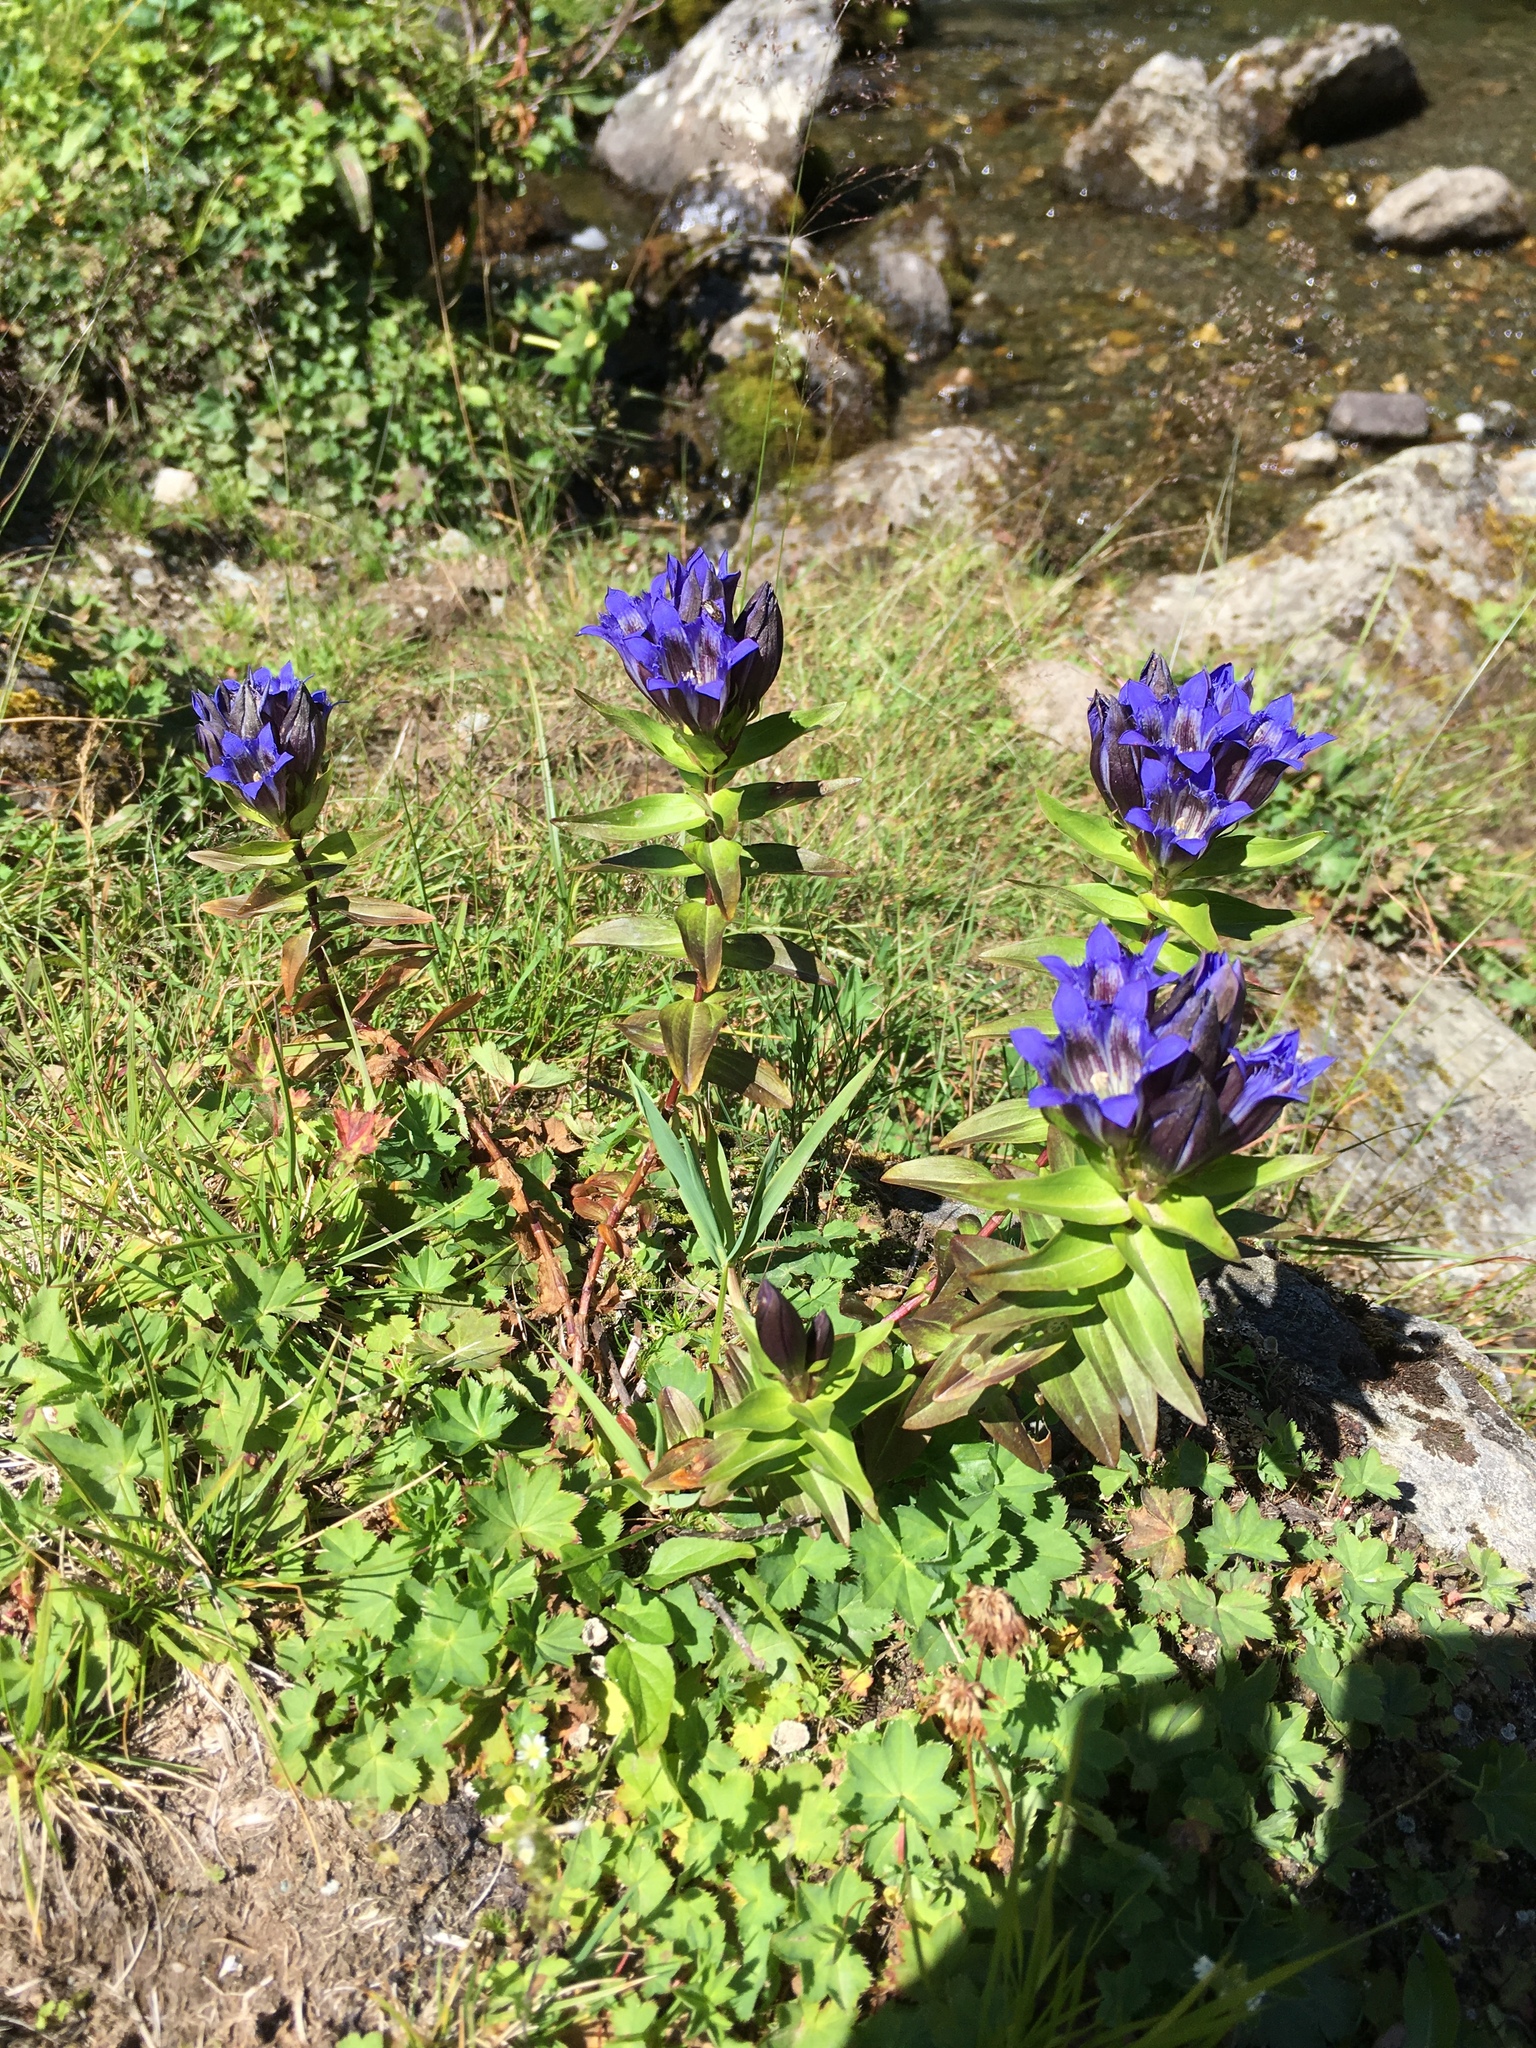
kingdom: Plantae
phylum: Tracheophyta
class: Magnoliopsida
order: Gentianales
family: Gentianaceae
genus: Gentiana
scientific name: Gentiana dschungarica
